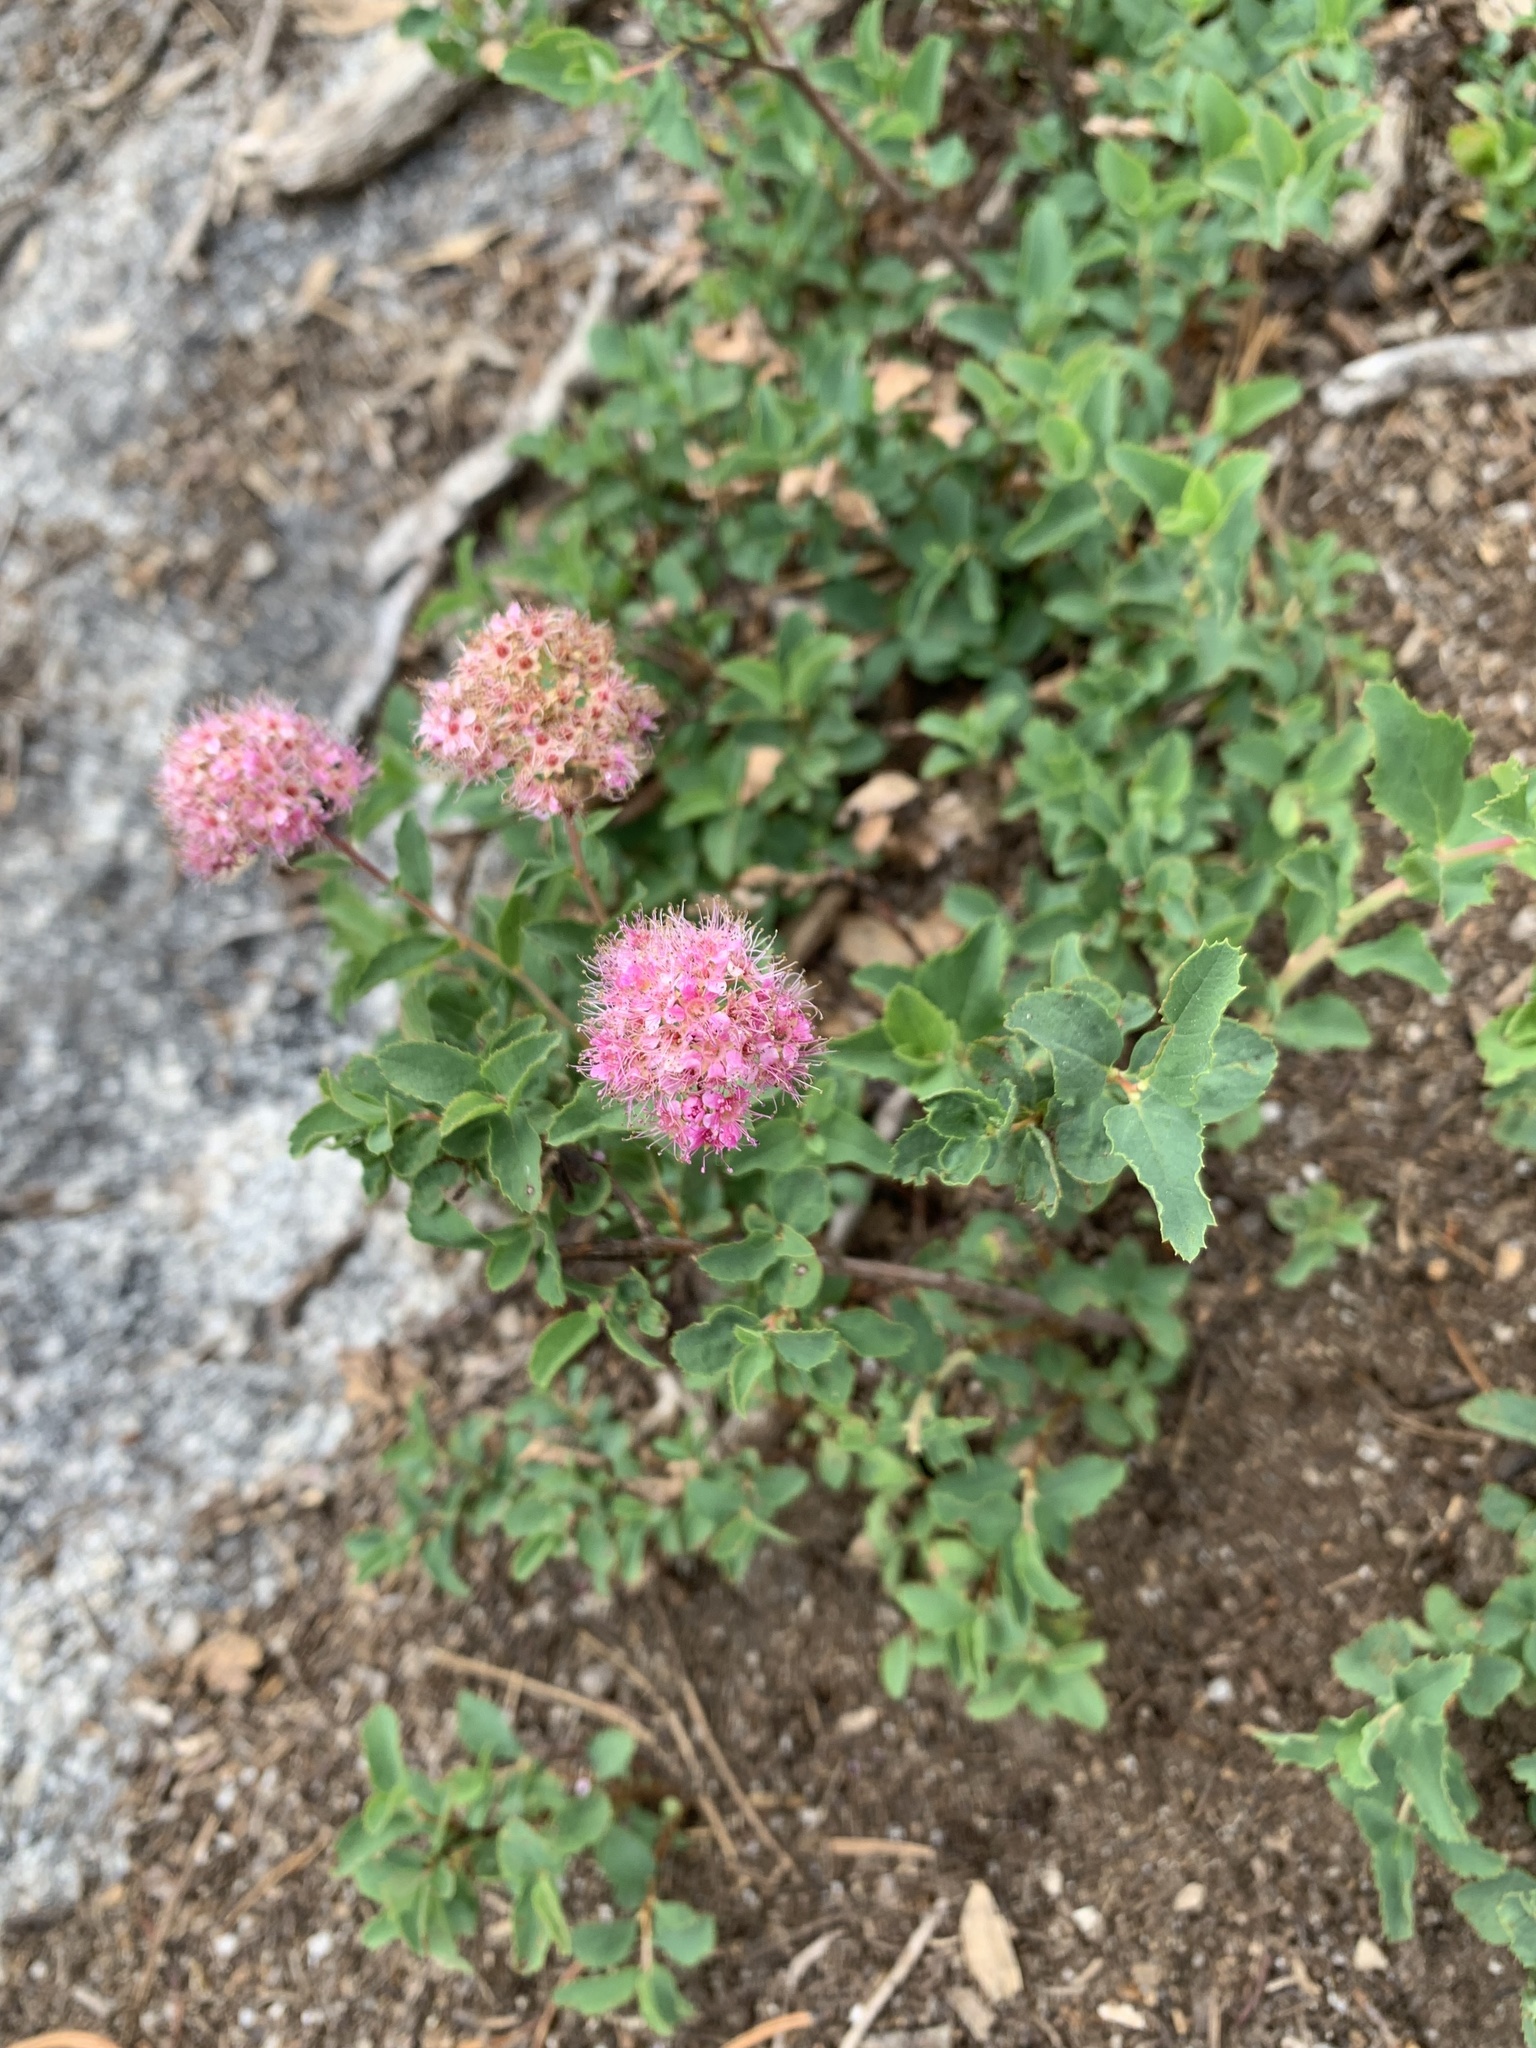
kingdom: Plantae
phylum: Tracheophyta
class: Magnoliopsida
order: Rosales
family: Rosaceae
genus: Spiraea
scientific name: Spiraea splendens
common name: Subalpine meadowsweet
